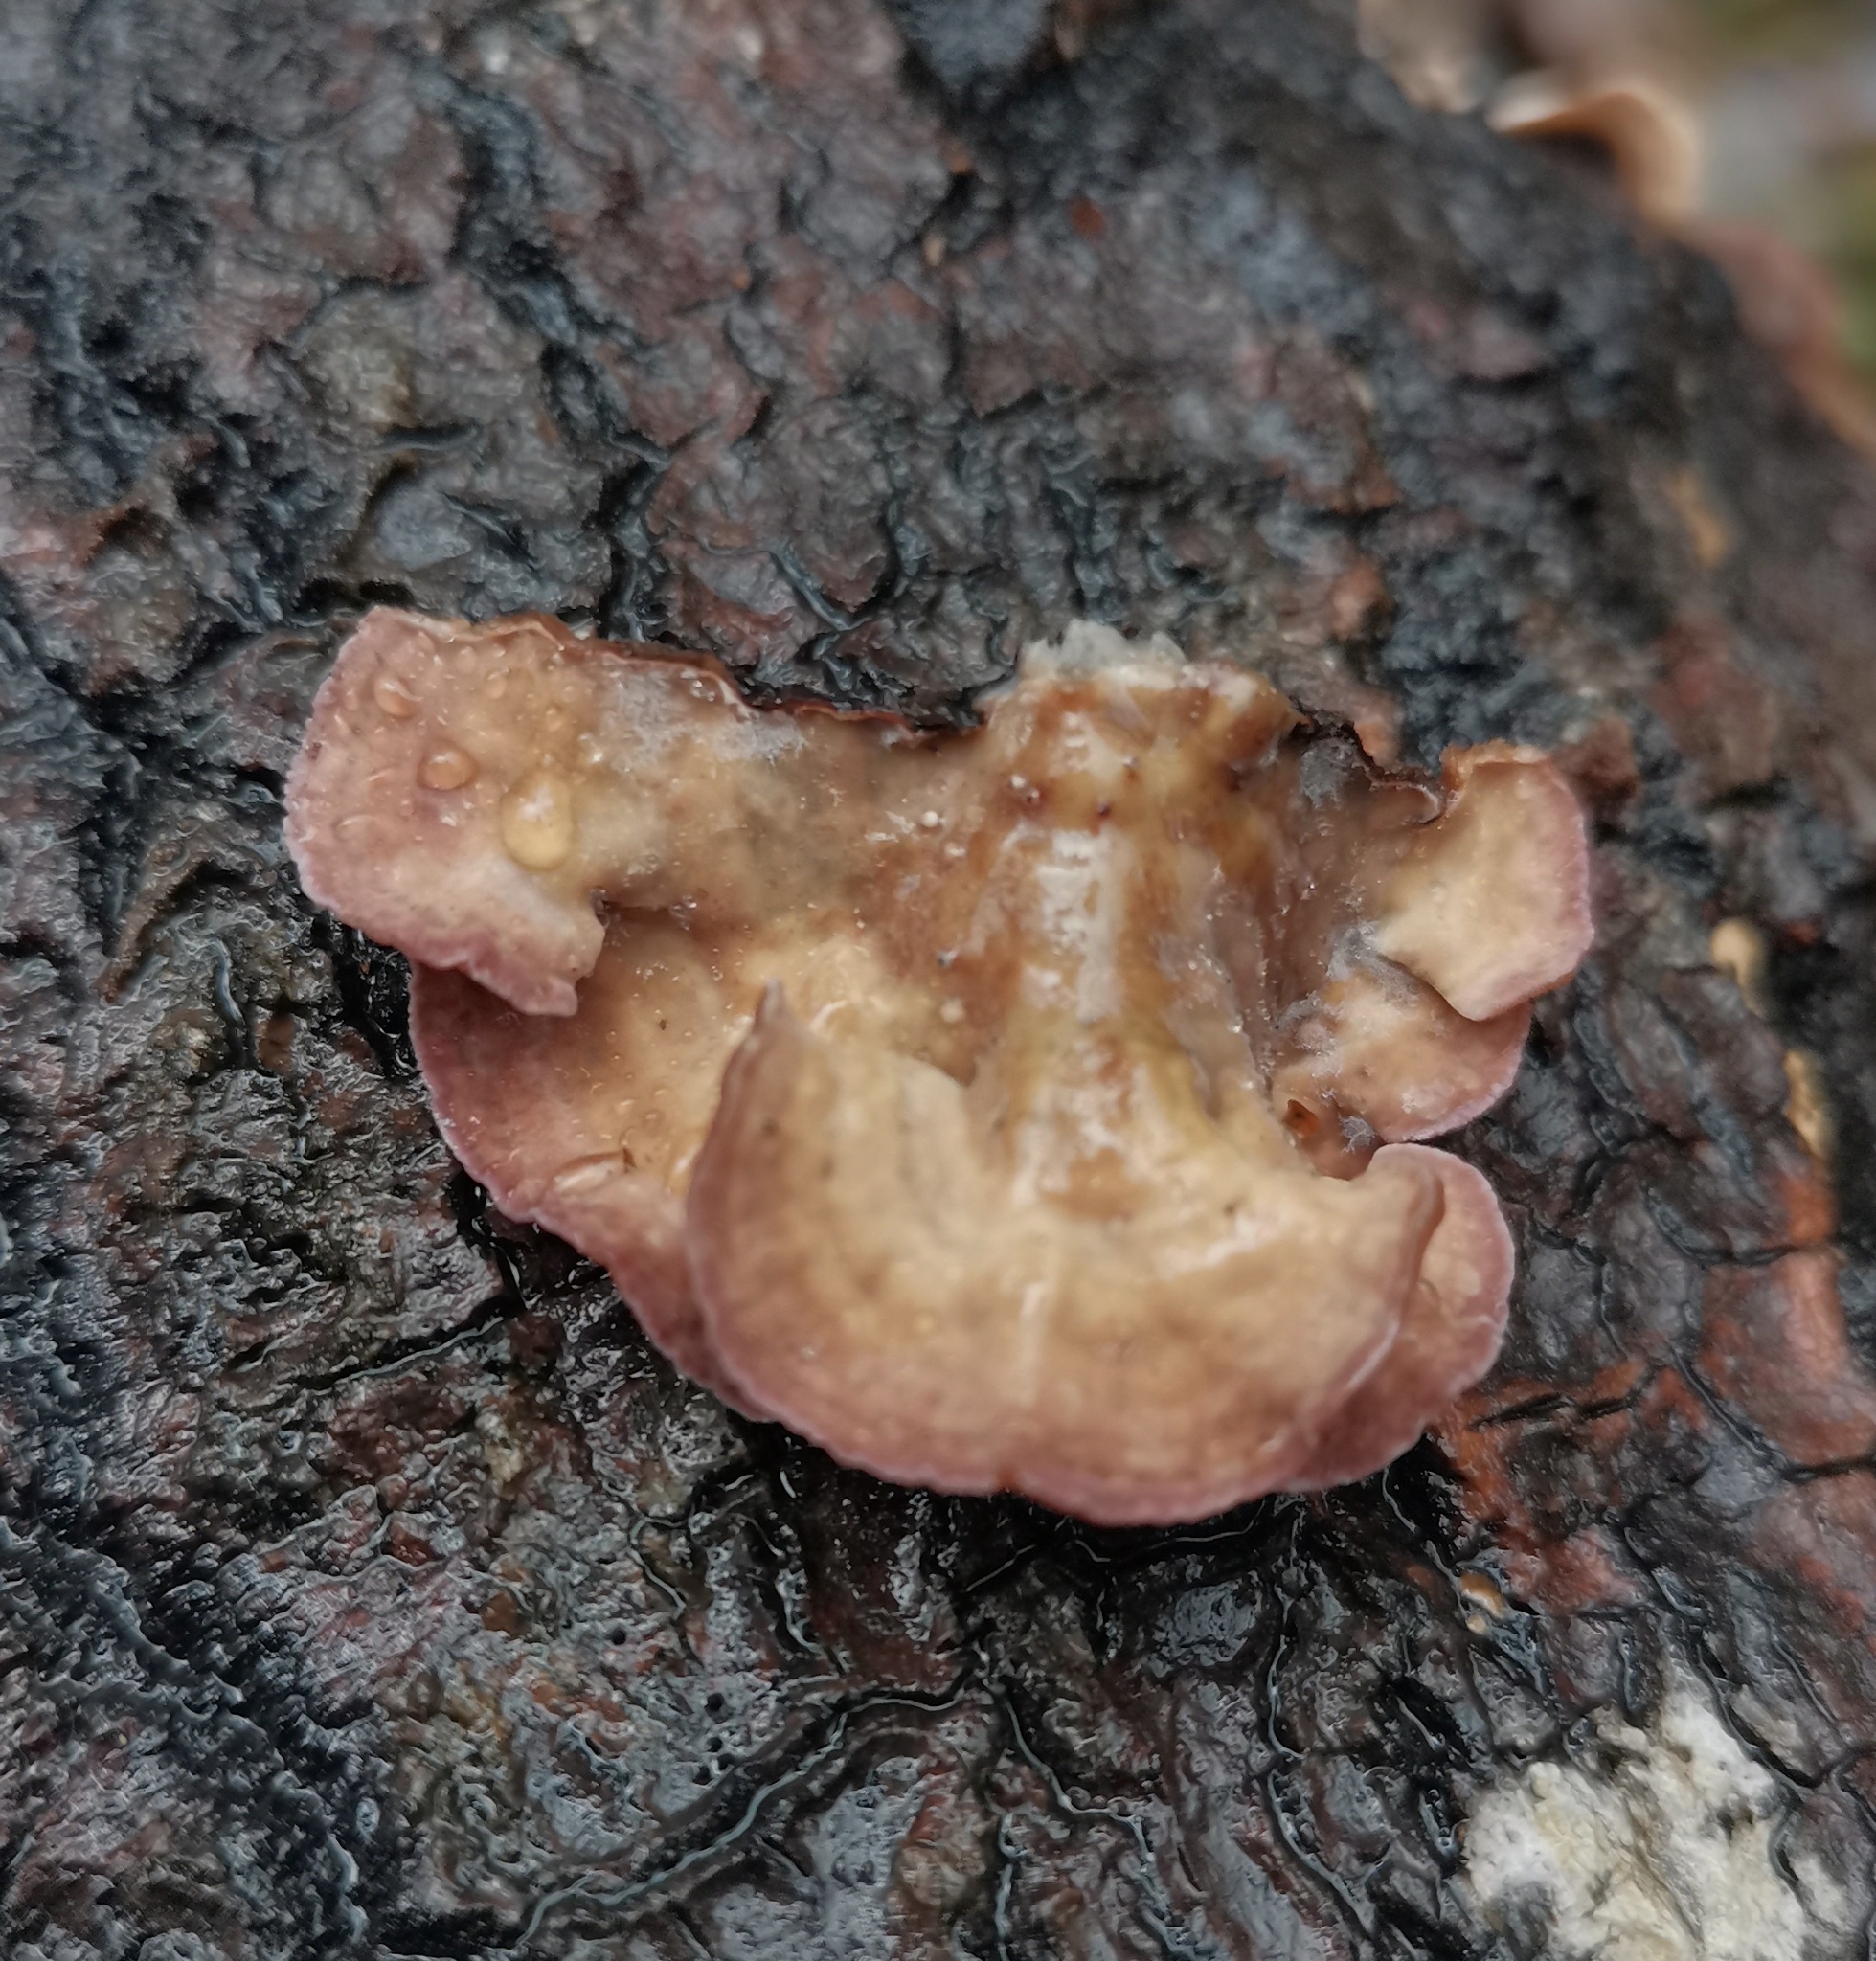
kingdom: Fungi
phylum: Basidiomycota
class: Agaricomycetes
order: Agaricales
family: Cyphellaceae
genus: Chondrostereum
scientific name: Chondrostereum purpureum
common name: Silver leaf disease
